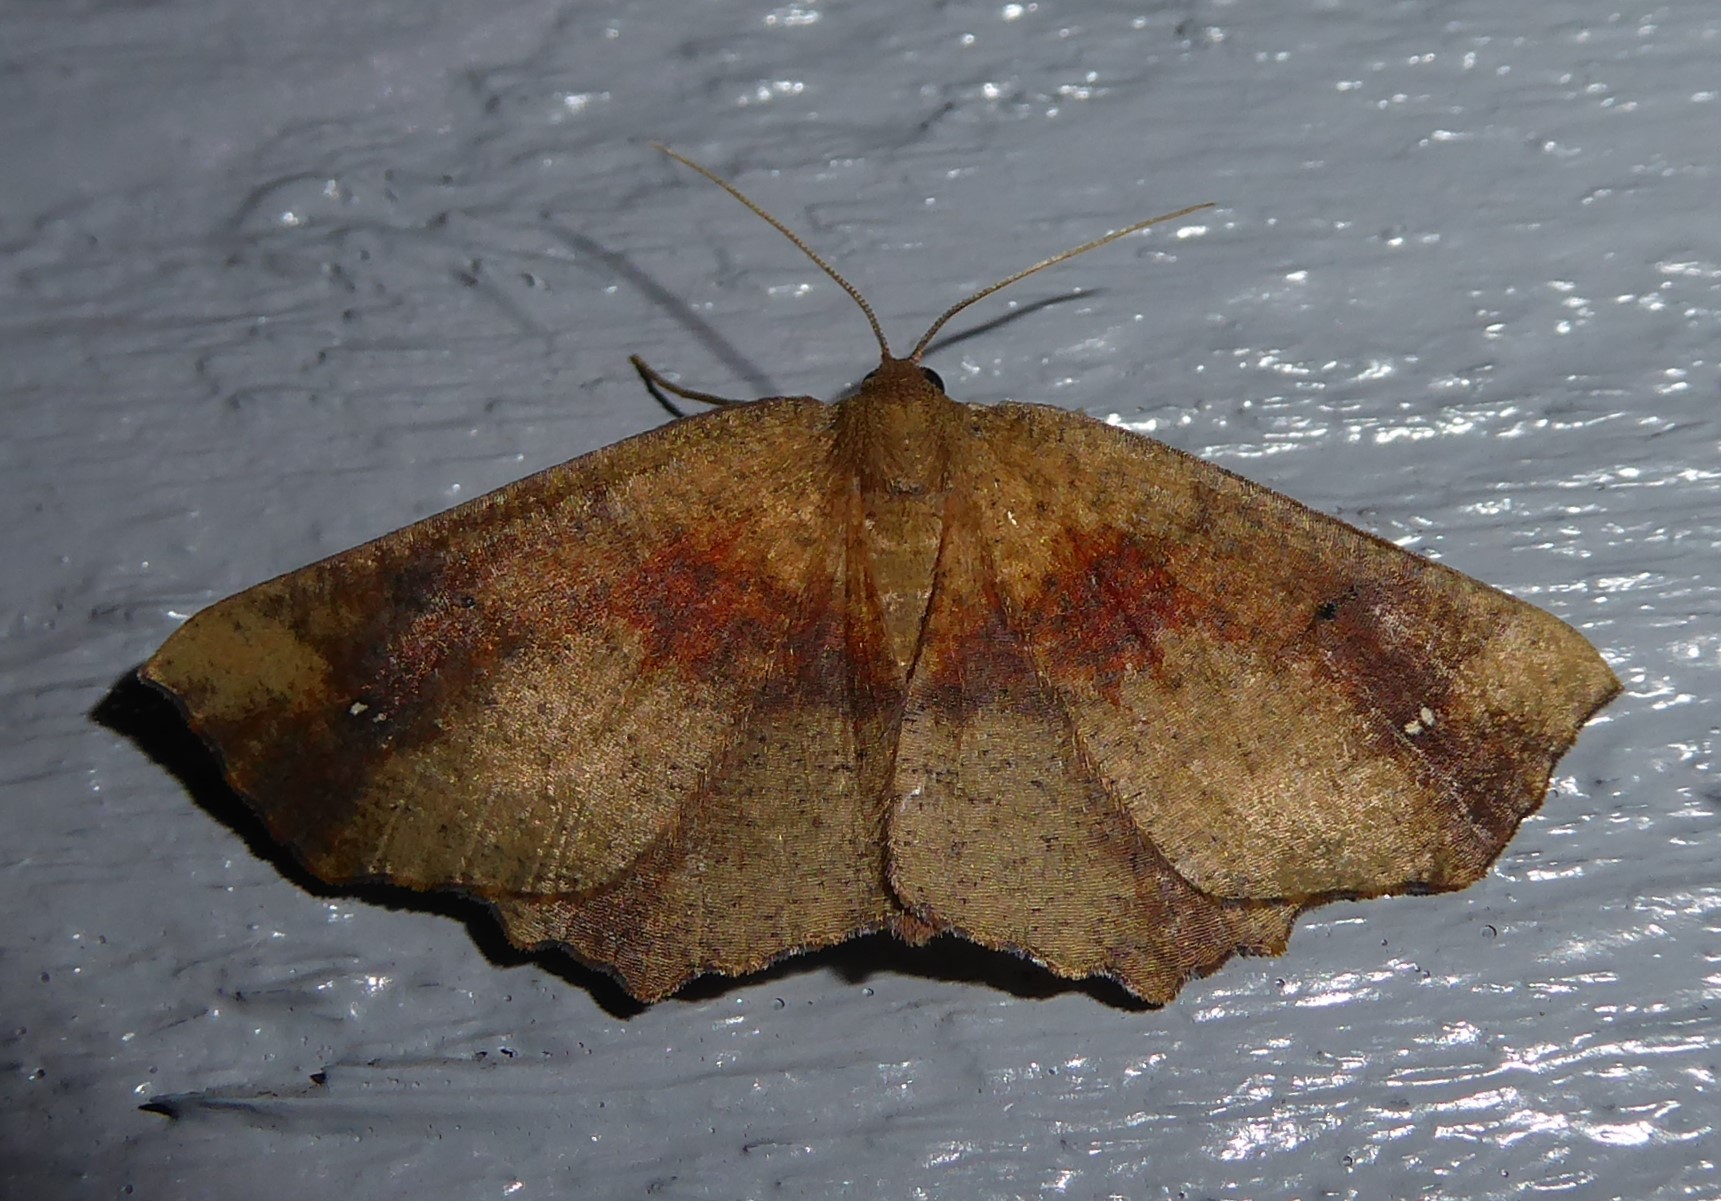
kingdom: Animalia
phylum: Arthropoda
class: Insecta
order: Lepidoptera
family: Geometridae
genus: Xyridacma
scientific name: Xyridacma ustaria
